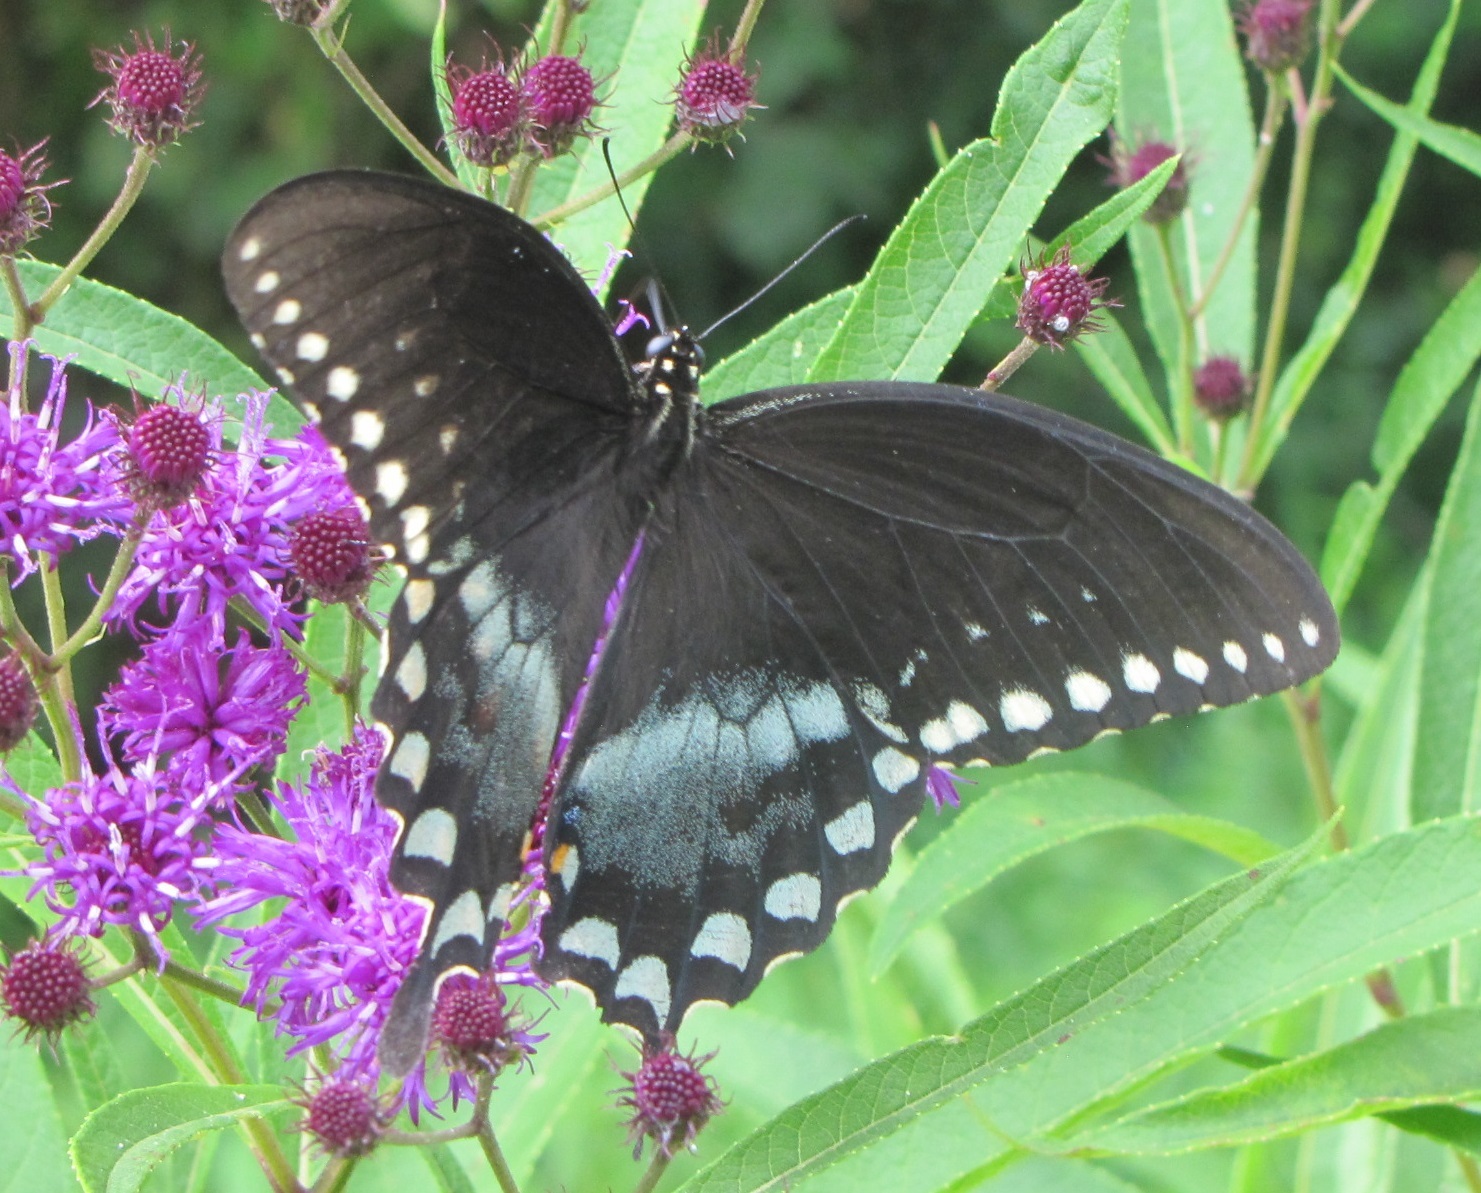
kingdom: Animalia
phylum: Arthropoda
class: Insecta
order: Lepidoptera
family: Papilionidae
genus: Papilio
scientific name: Papilio troilus
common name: Spicebush swallowtail
